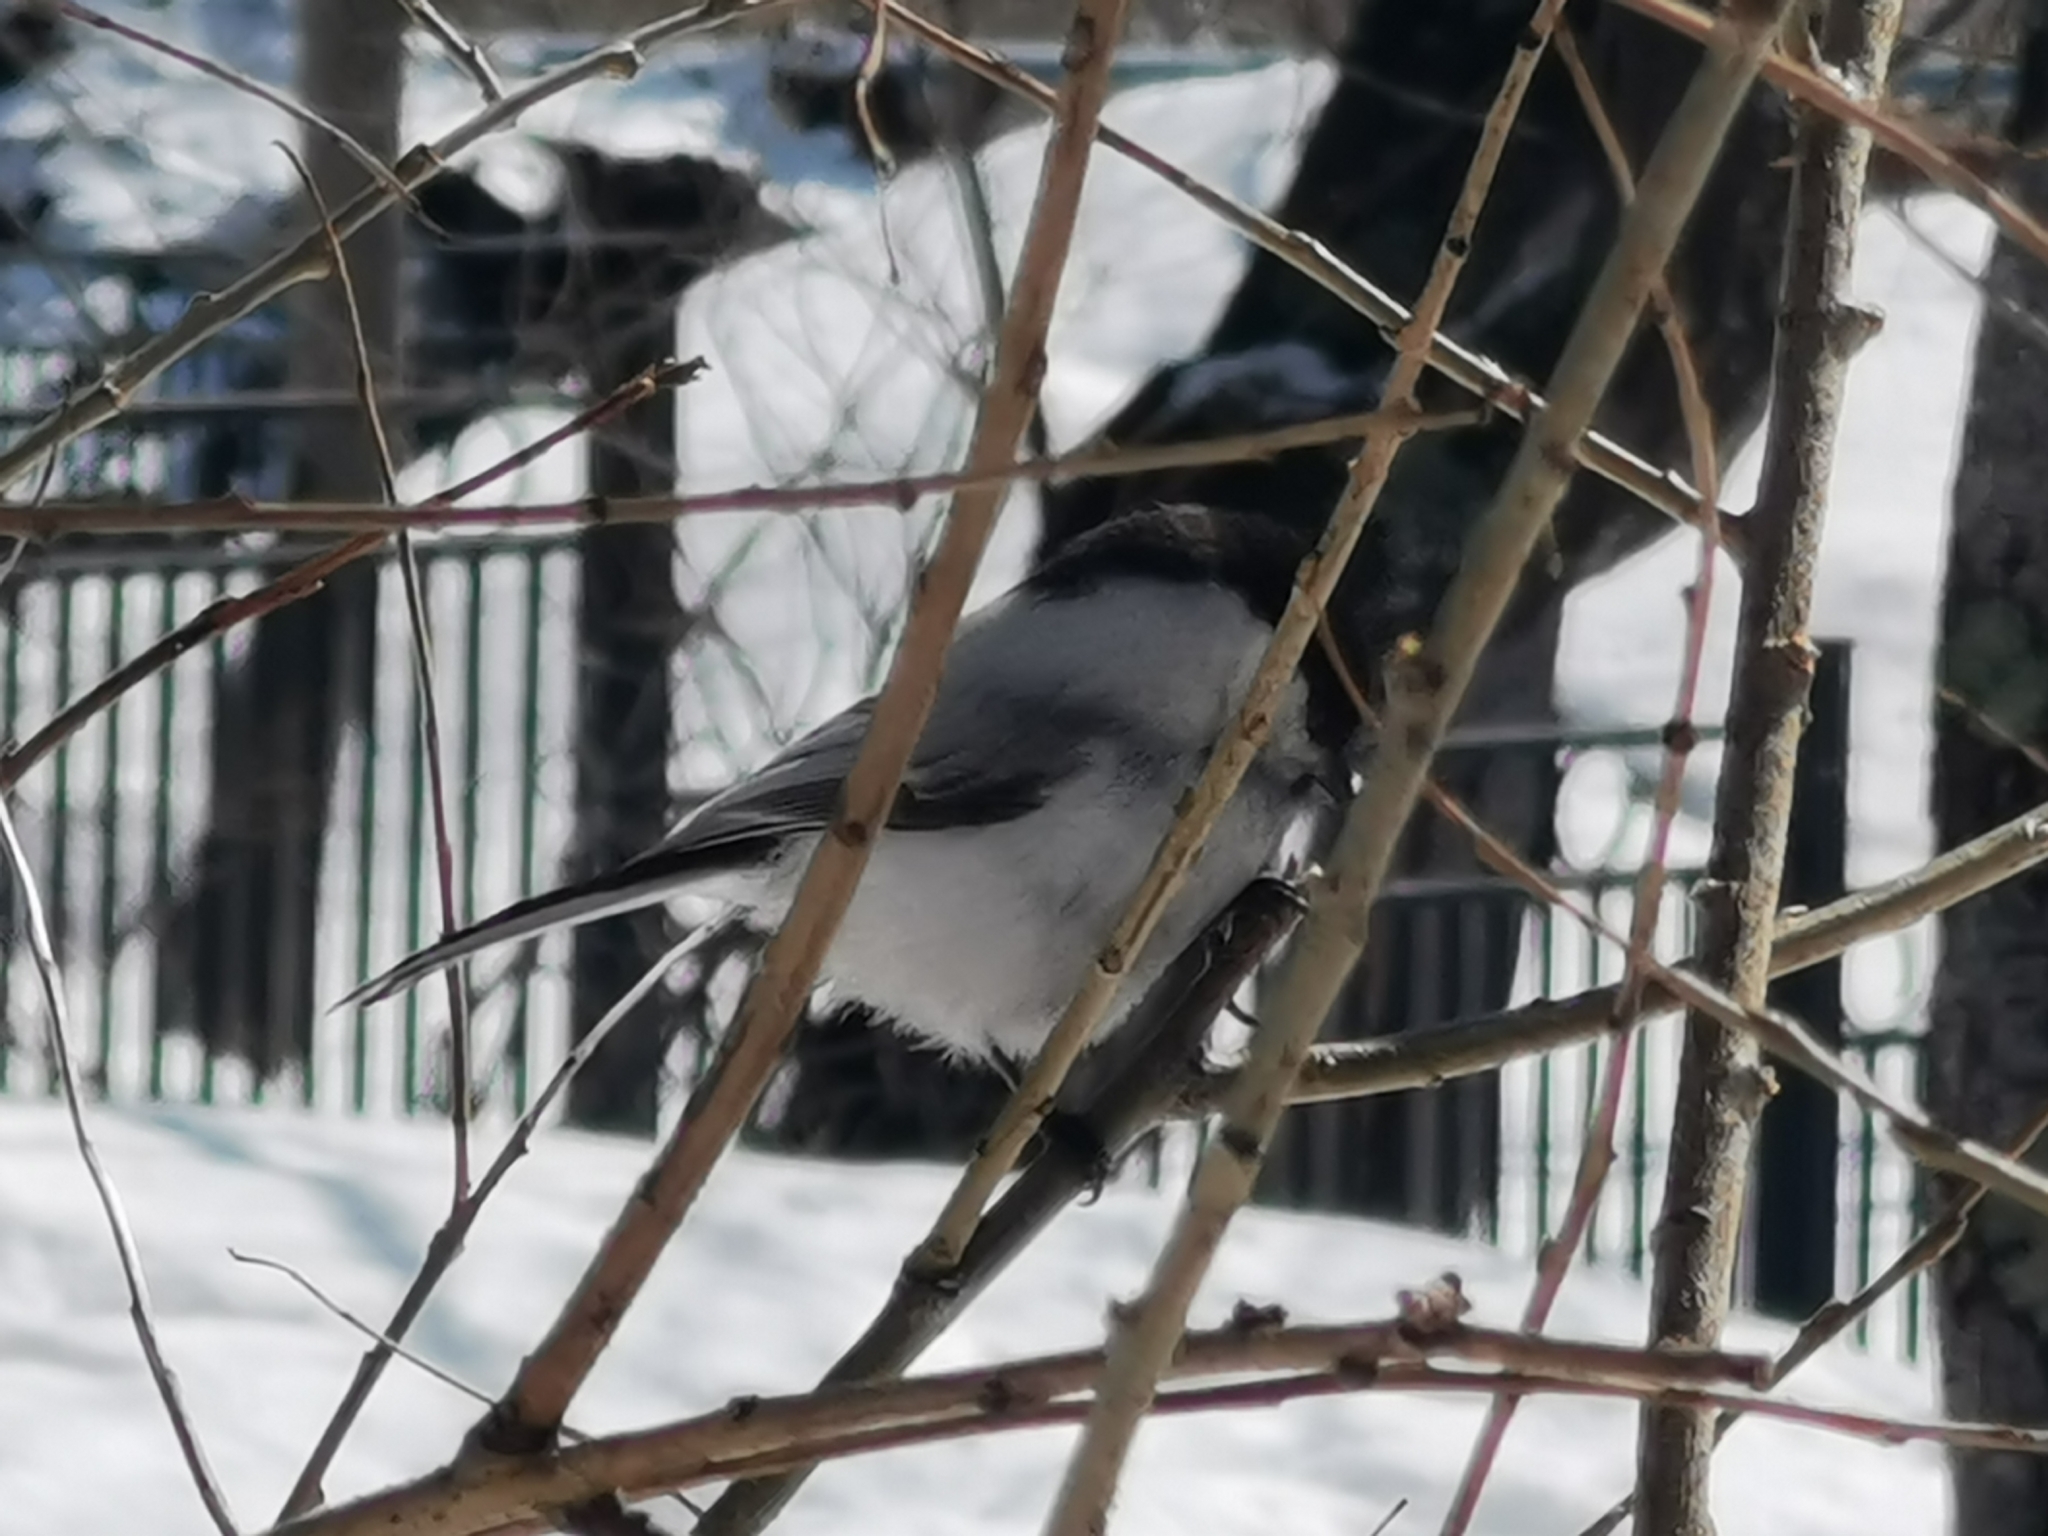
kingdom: Animalia
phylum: Chordata
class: Aves
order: Passeriformes
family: Paridae
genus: Poecile
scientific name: Poecile montanus
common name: Willow tit
